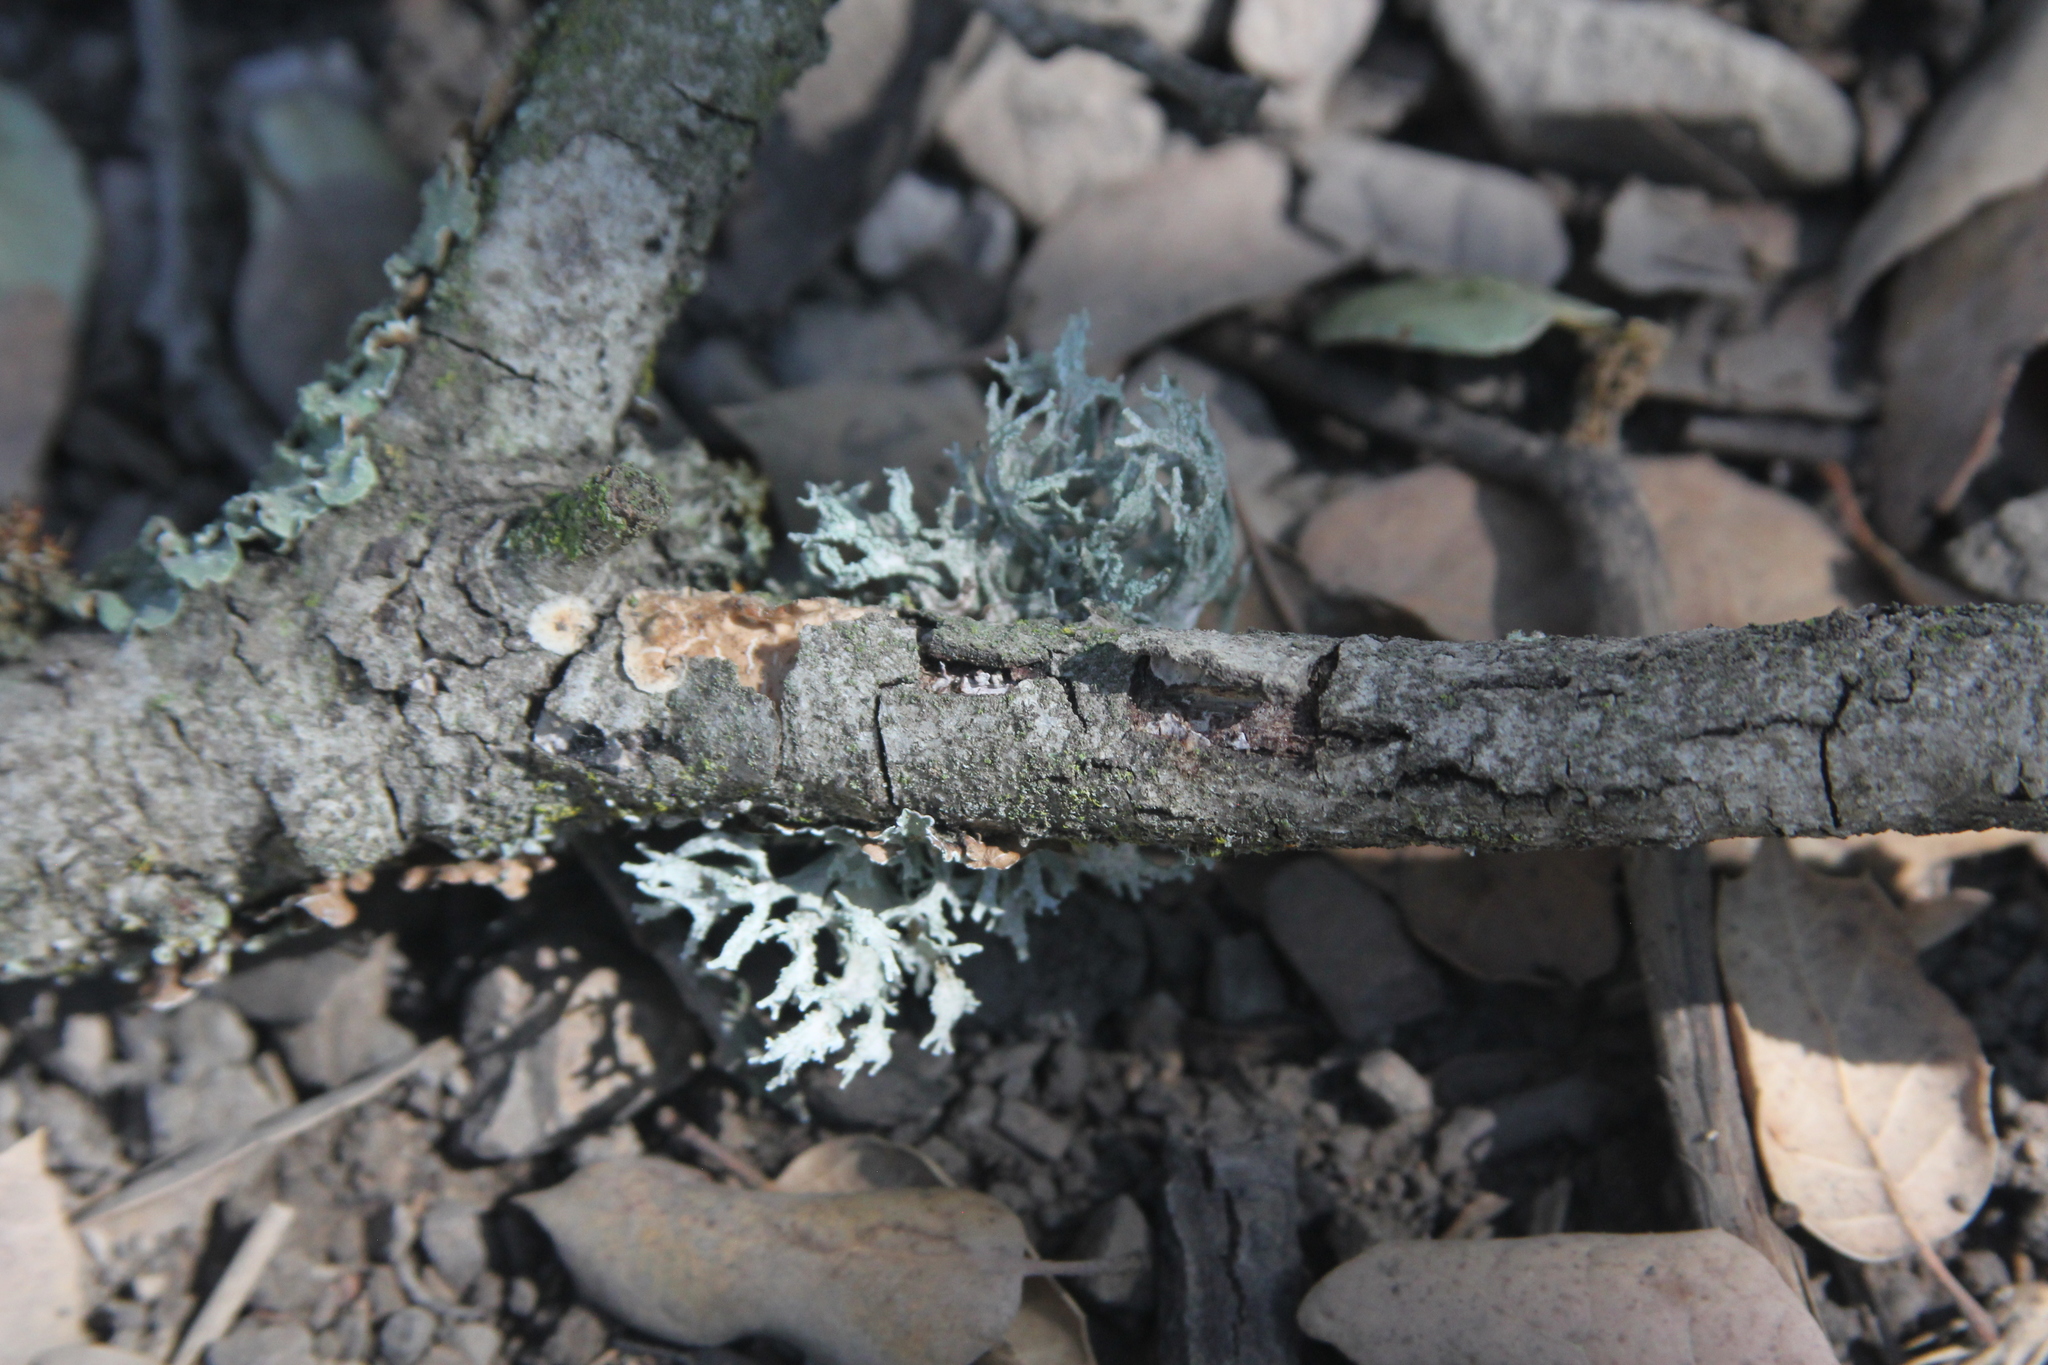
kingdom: Fungi
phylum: Ascomycota
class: Lecanoromycetes
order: Lecanorales
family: Parmeliaceae
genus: Evernia
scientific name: Evernia prunastri
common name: Oak moss
